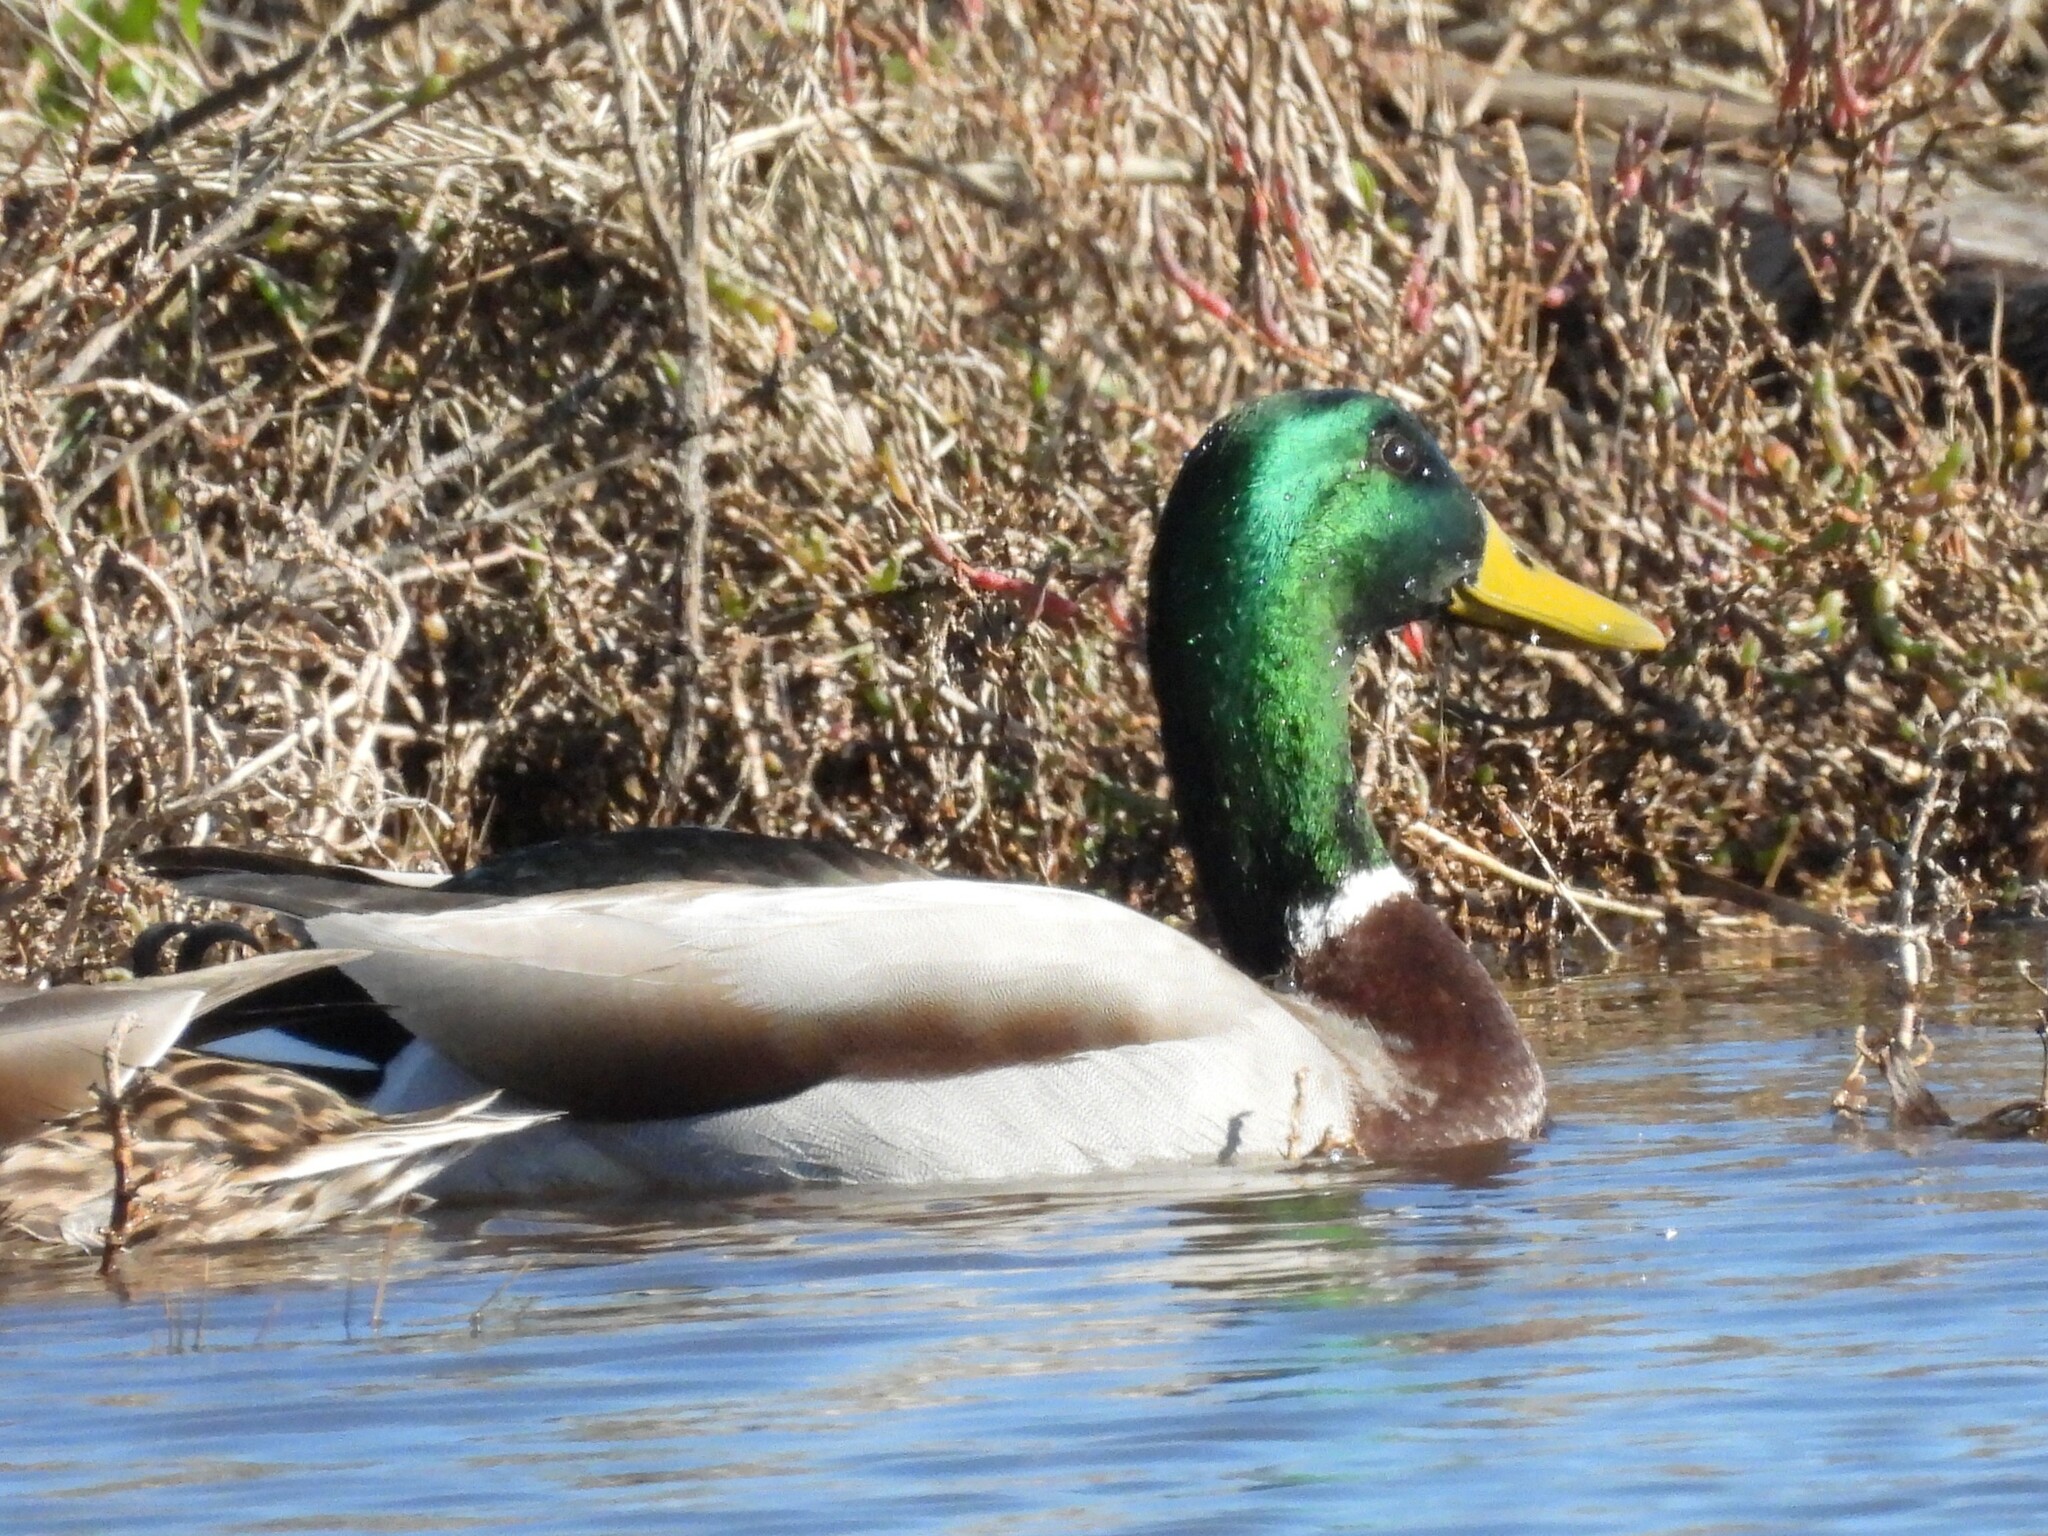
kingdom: Animalia
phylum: Chordata
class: Aves
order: Anseriformes
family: Anatidae
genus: Anas
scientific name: Anas platyrhynchos
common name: Mallard
